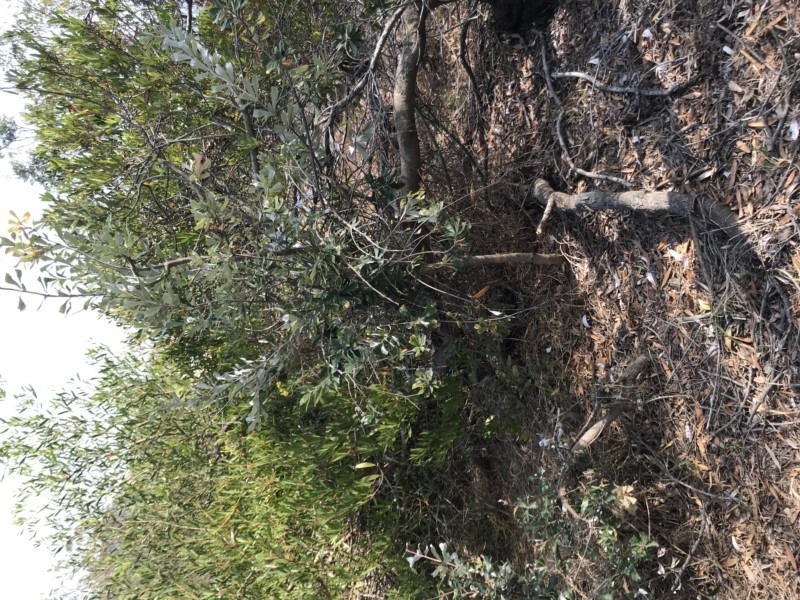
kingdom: Plantae
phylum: Tracheophyta
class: Magnoliopsida
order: Proteales
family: Proteaceae
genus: Banksia
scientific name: Banksia integrifolia
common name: White-honeysuckle
